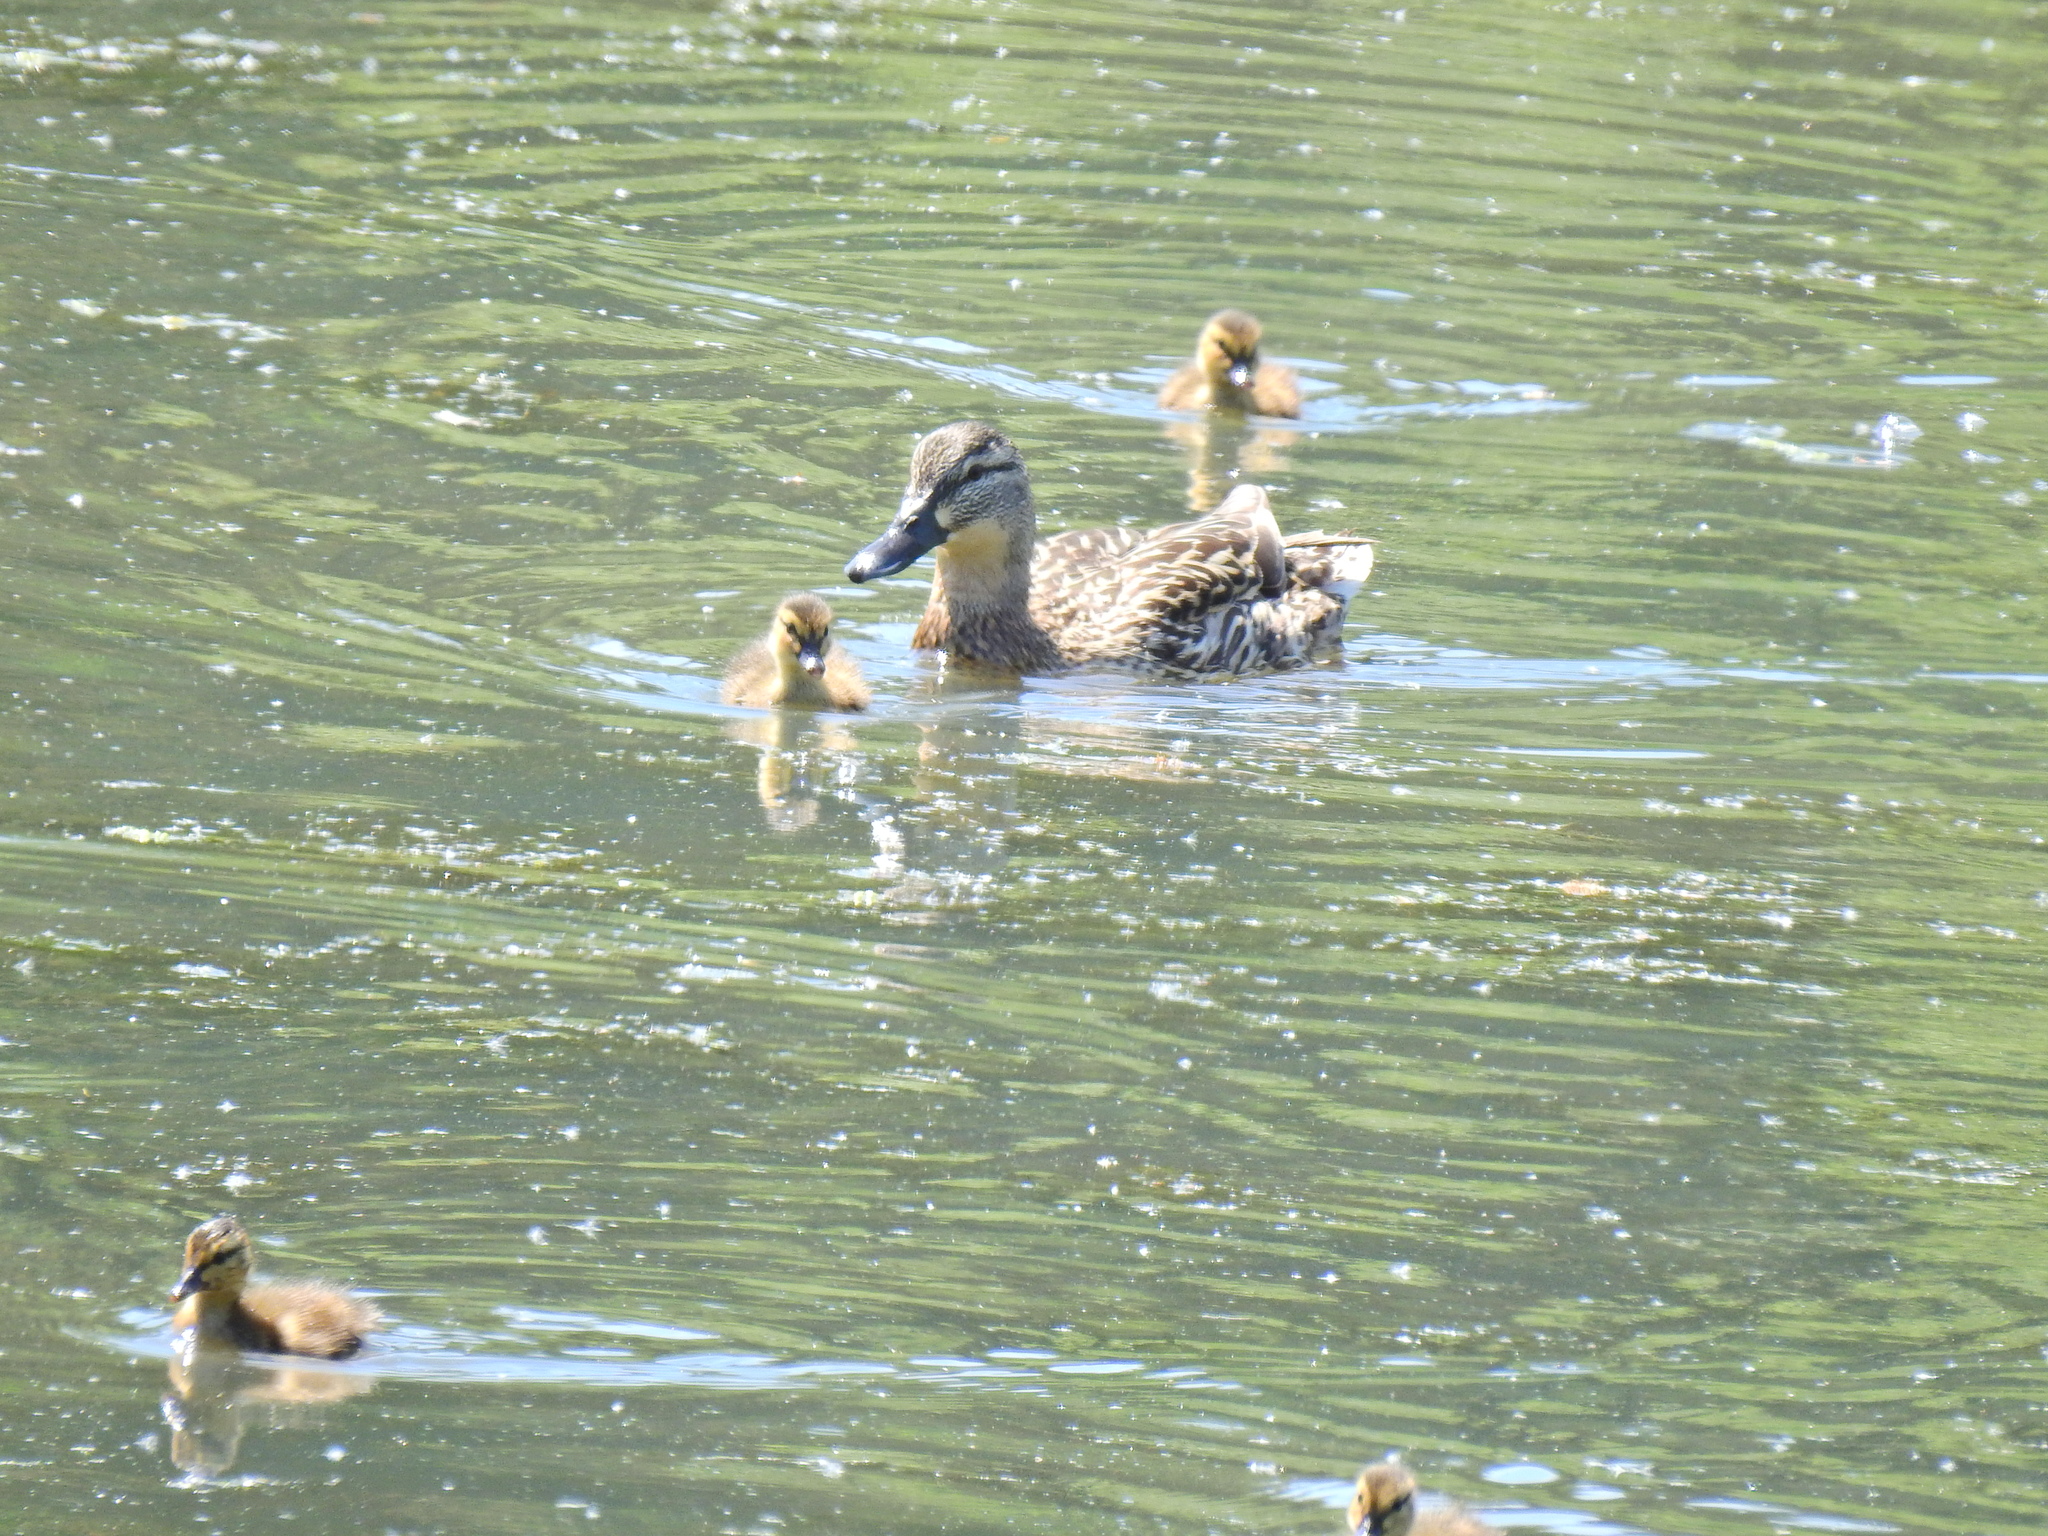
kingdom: Animalia
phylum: Chordata
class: Aves
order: Anseriformes
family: Anatidae
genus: Anas
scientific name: Anas platyrhynchos
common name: Mallard
